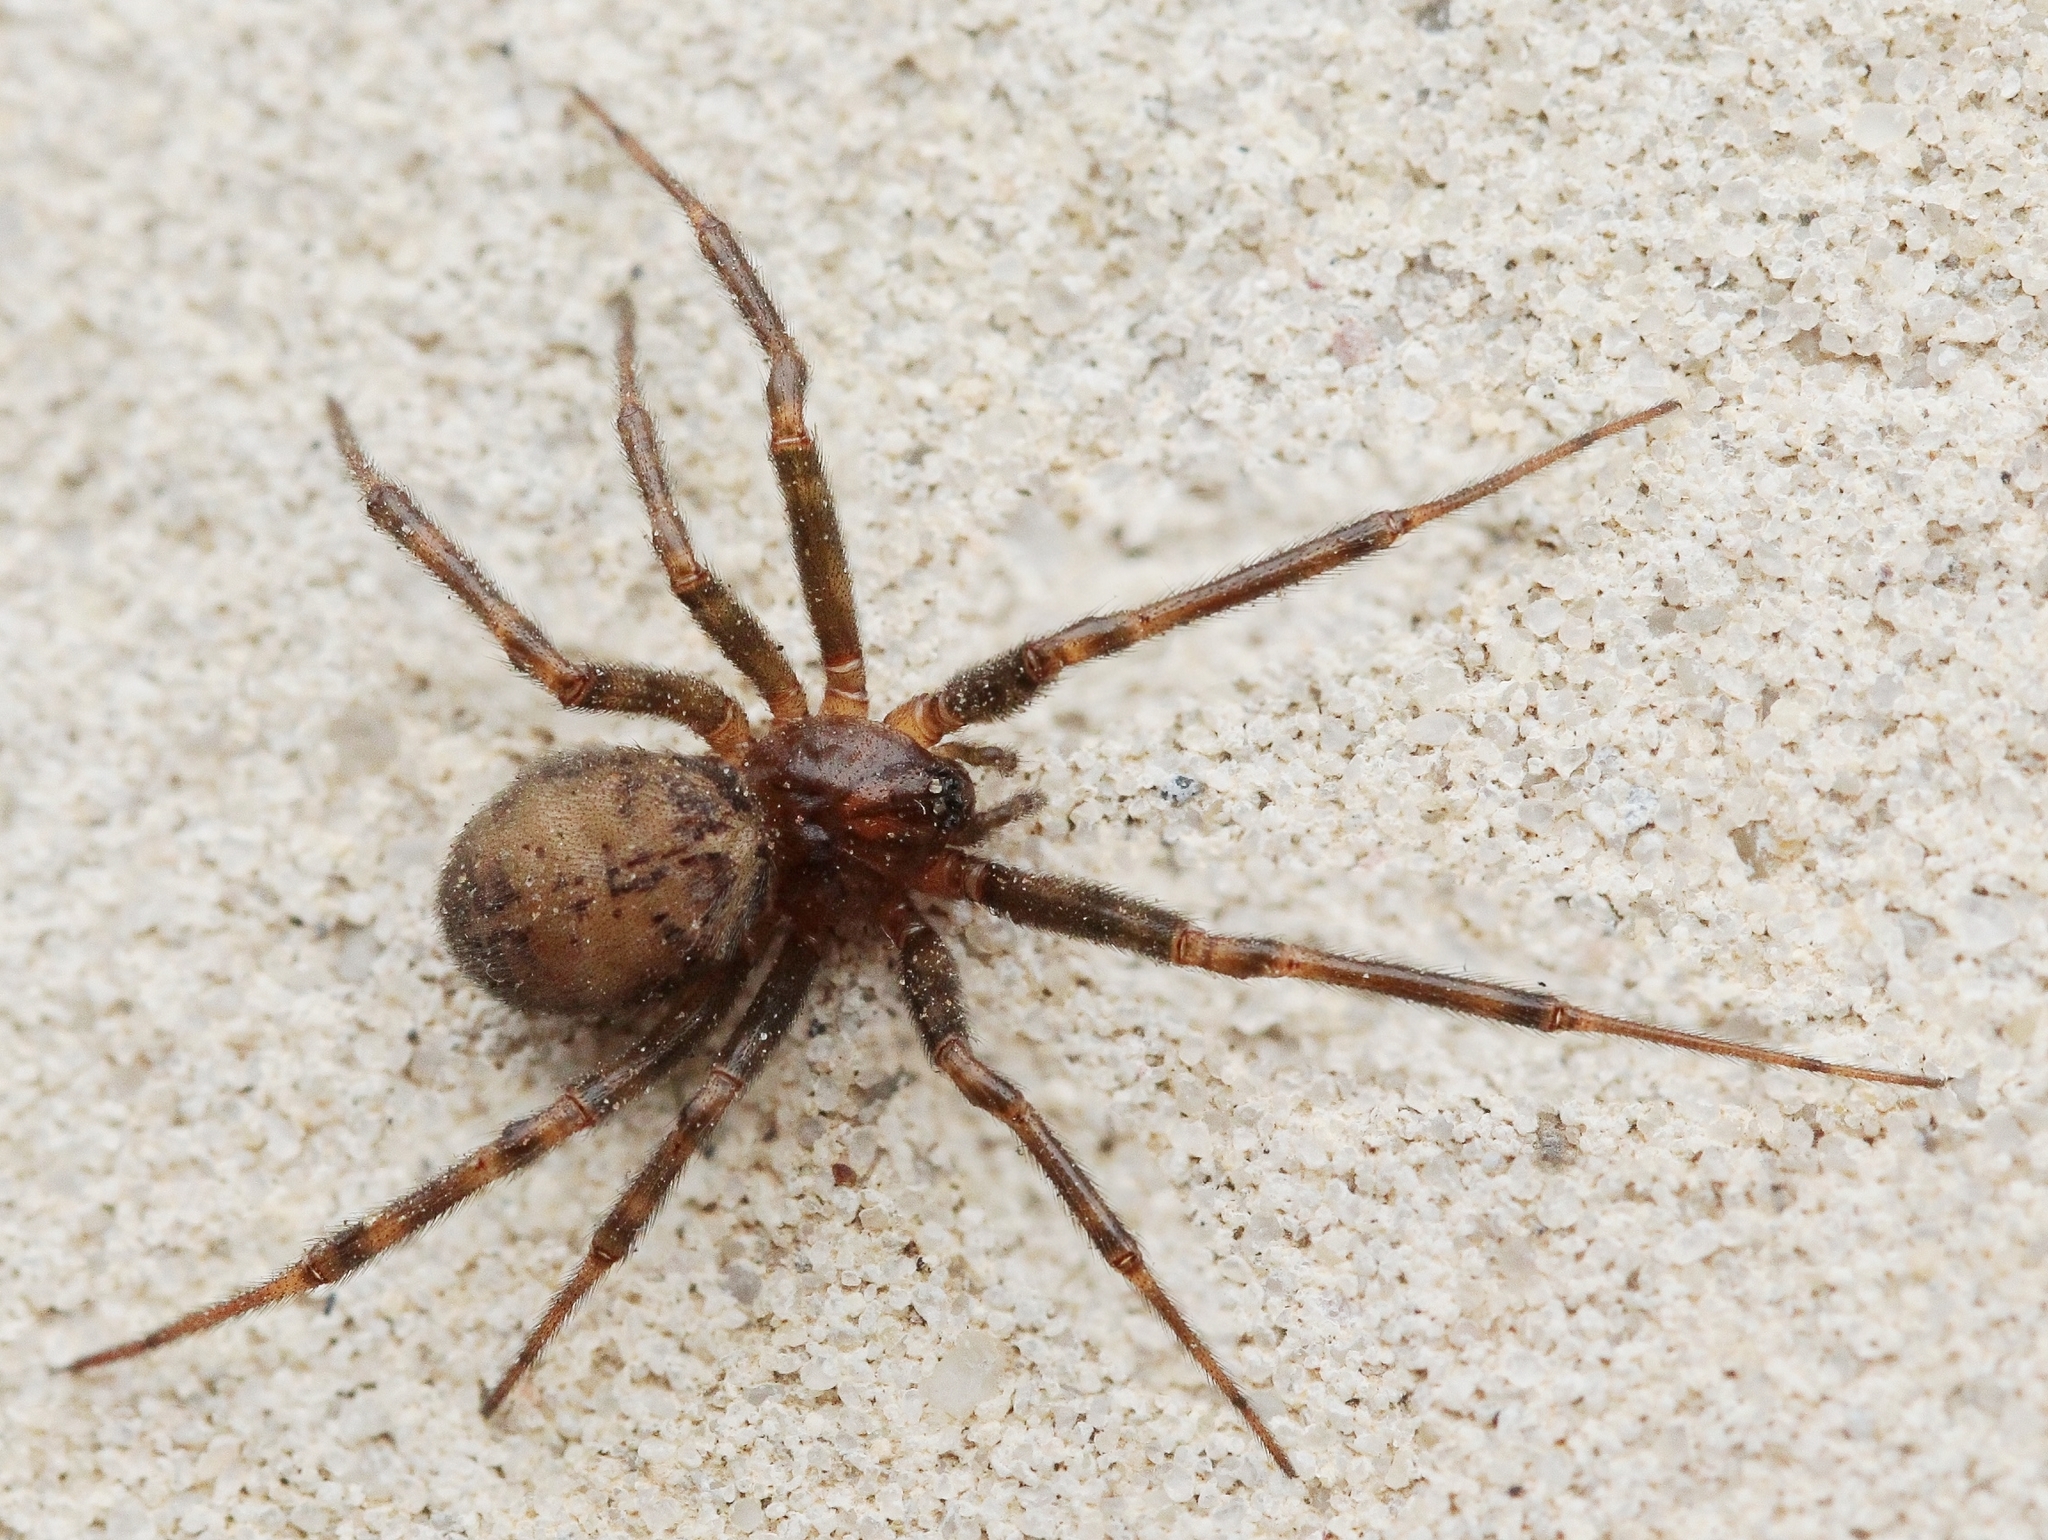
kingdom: Animalia
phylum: Arthropoda
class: Arachnida
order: Araneae
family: Theridiidae
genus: Steatoda
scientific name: Steatoda castanea
